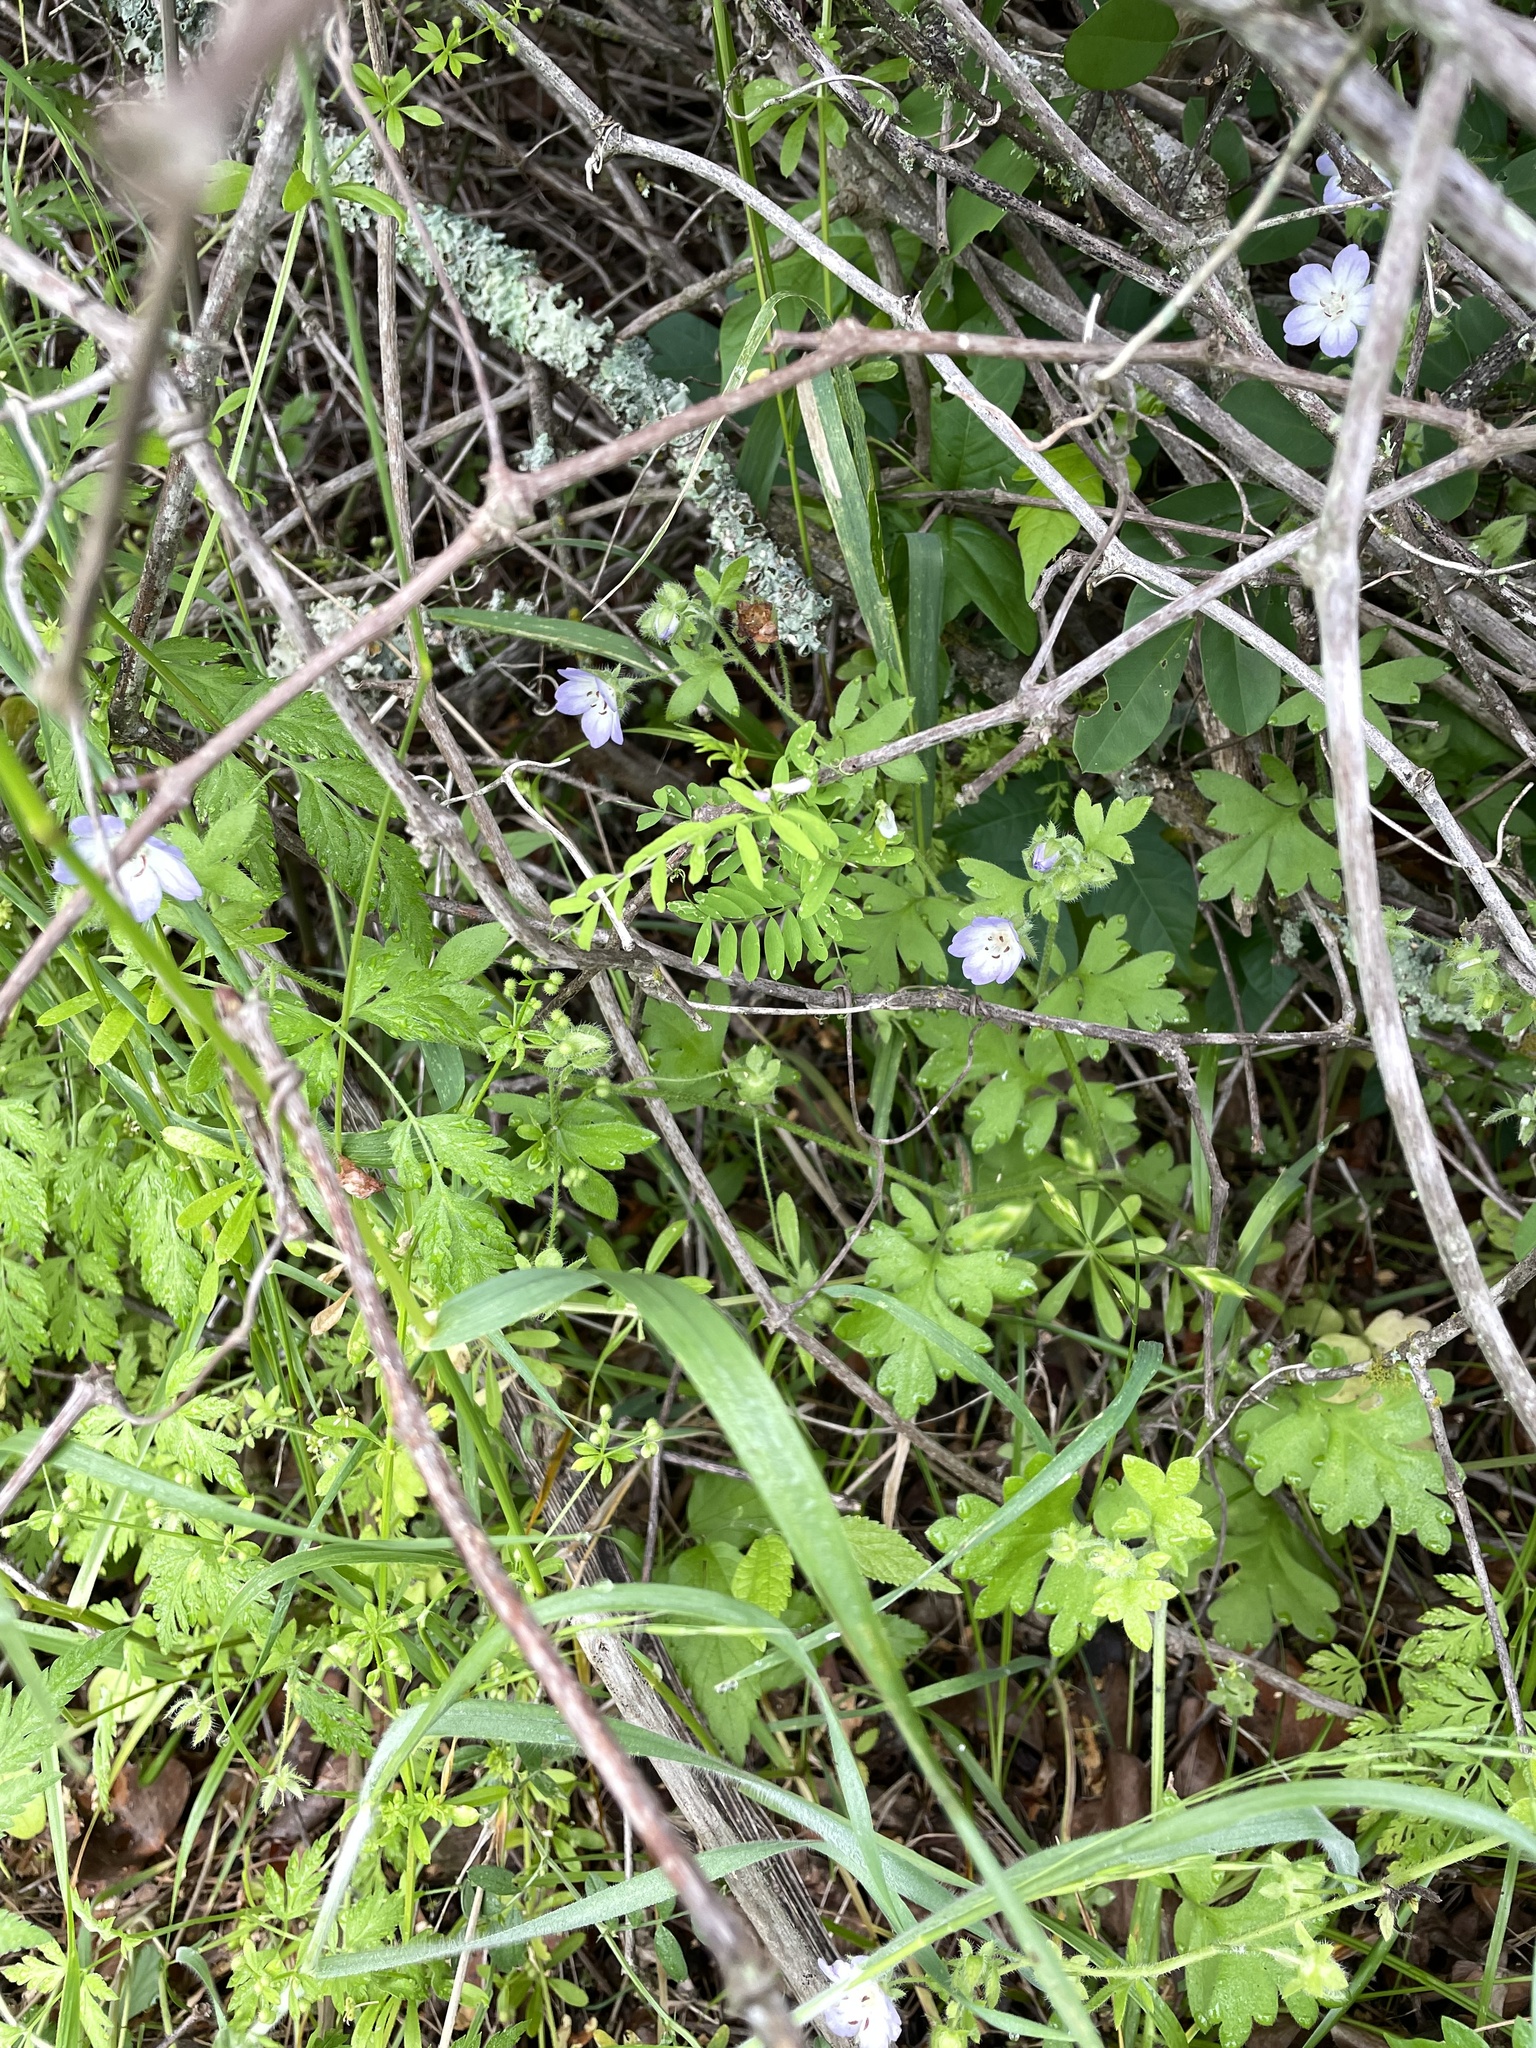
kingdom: Plantae
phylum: Tracheophyta
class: Magnoliopsida
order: Boraginales
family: Hydrophyllaceae
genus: Nemophila
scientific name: Nemophila phacelioides
